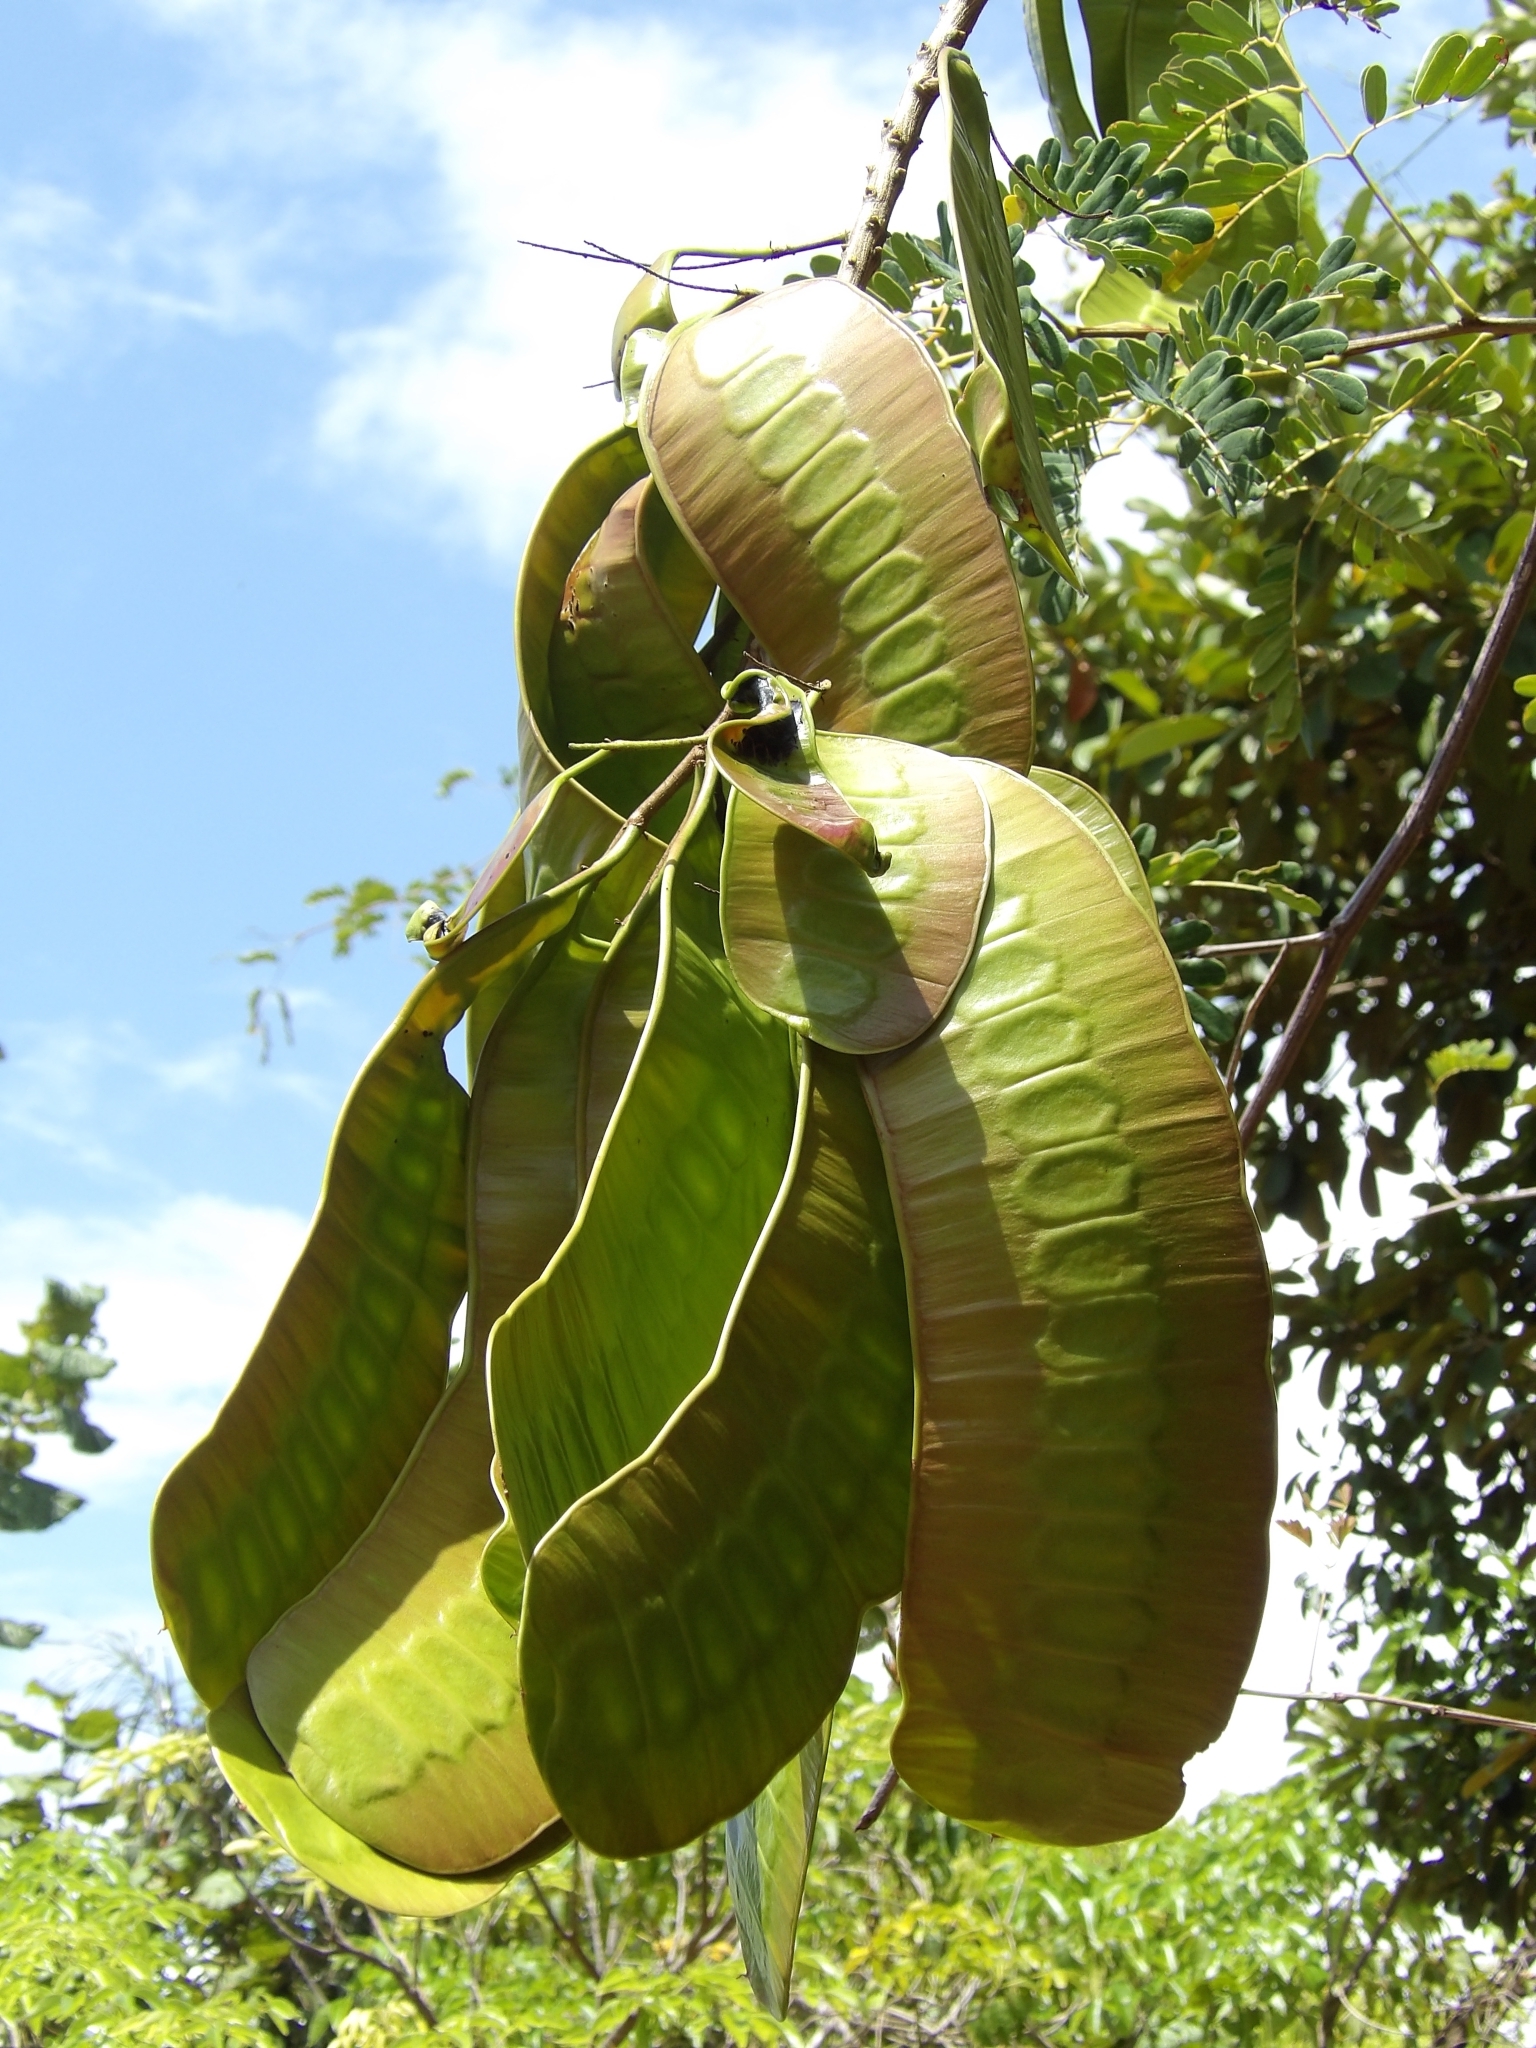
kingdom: Plantae
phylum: Tracheophyta
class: Magnoliopsida
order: Fabales
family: Fabaceae
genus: Entada
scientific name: Entada polystachya
